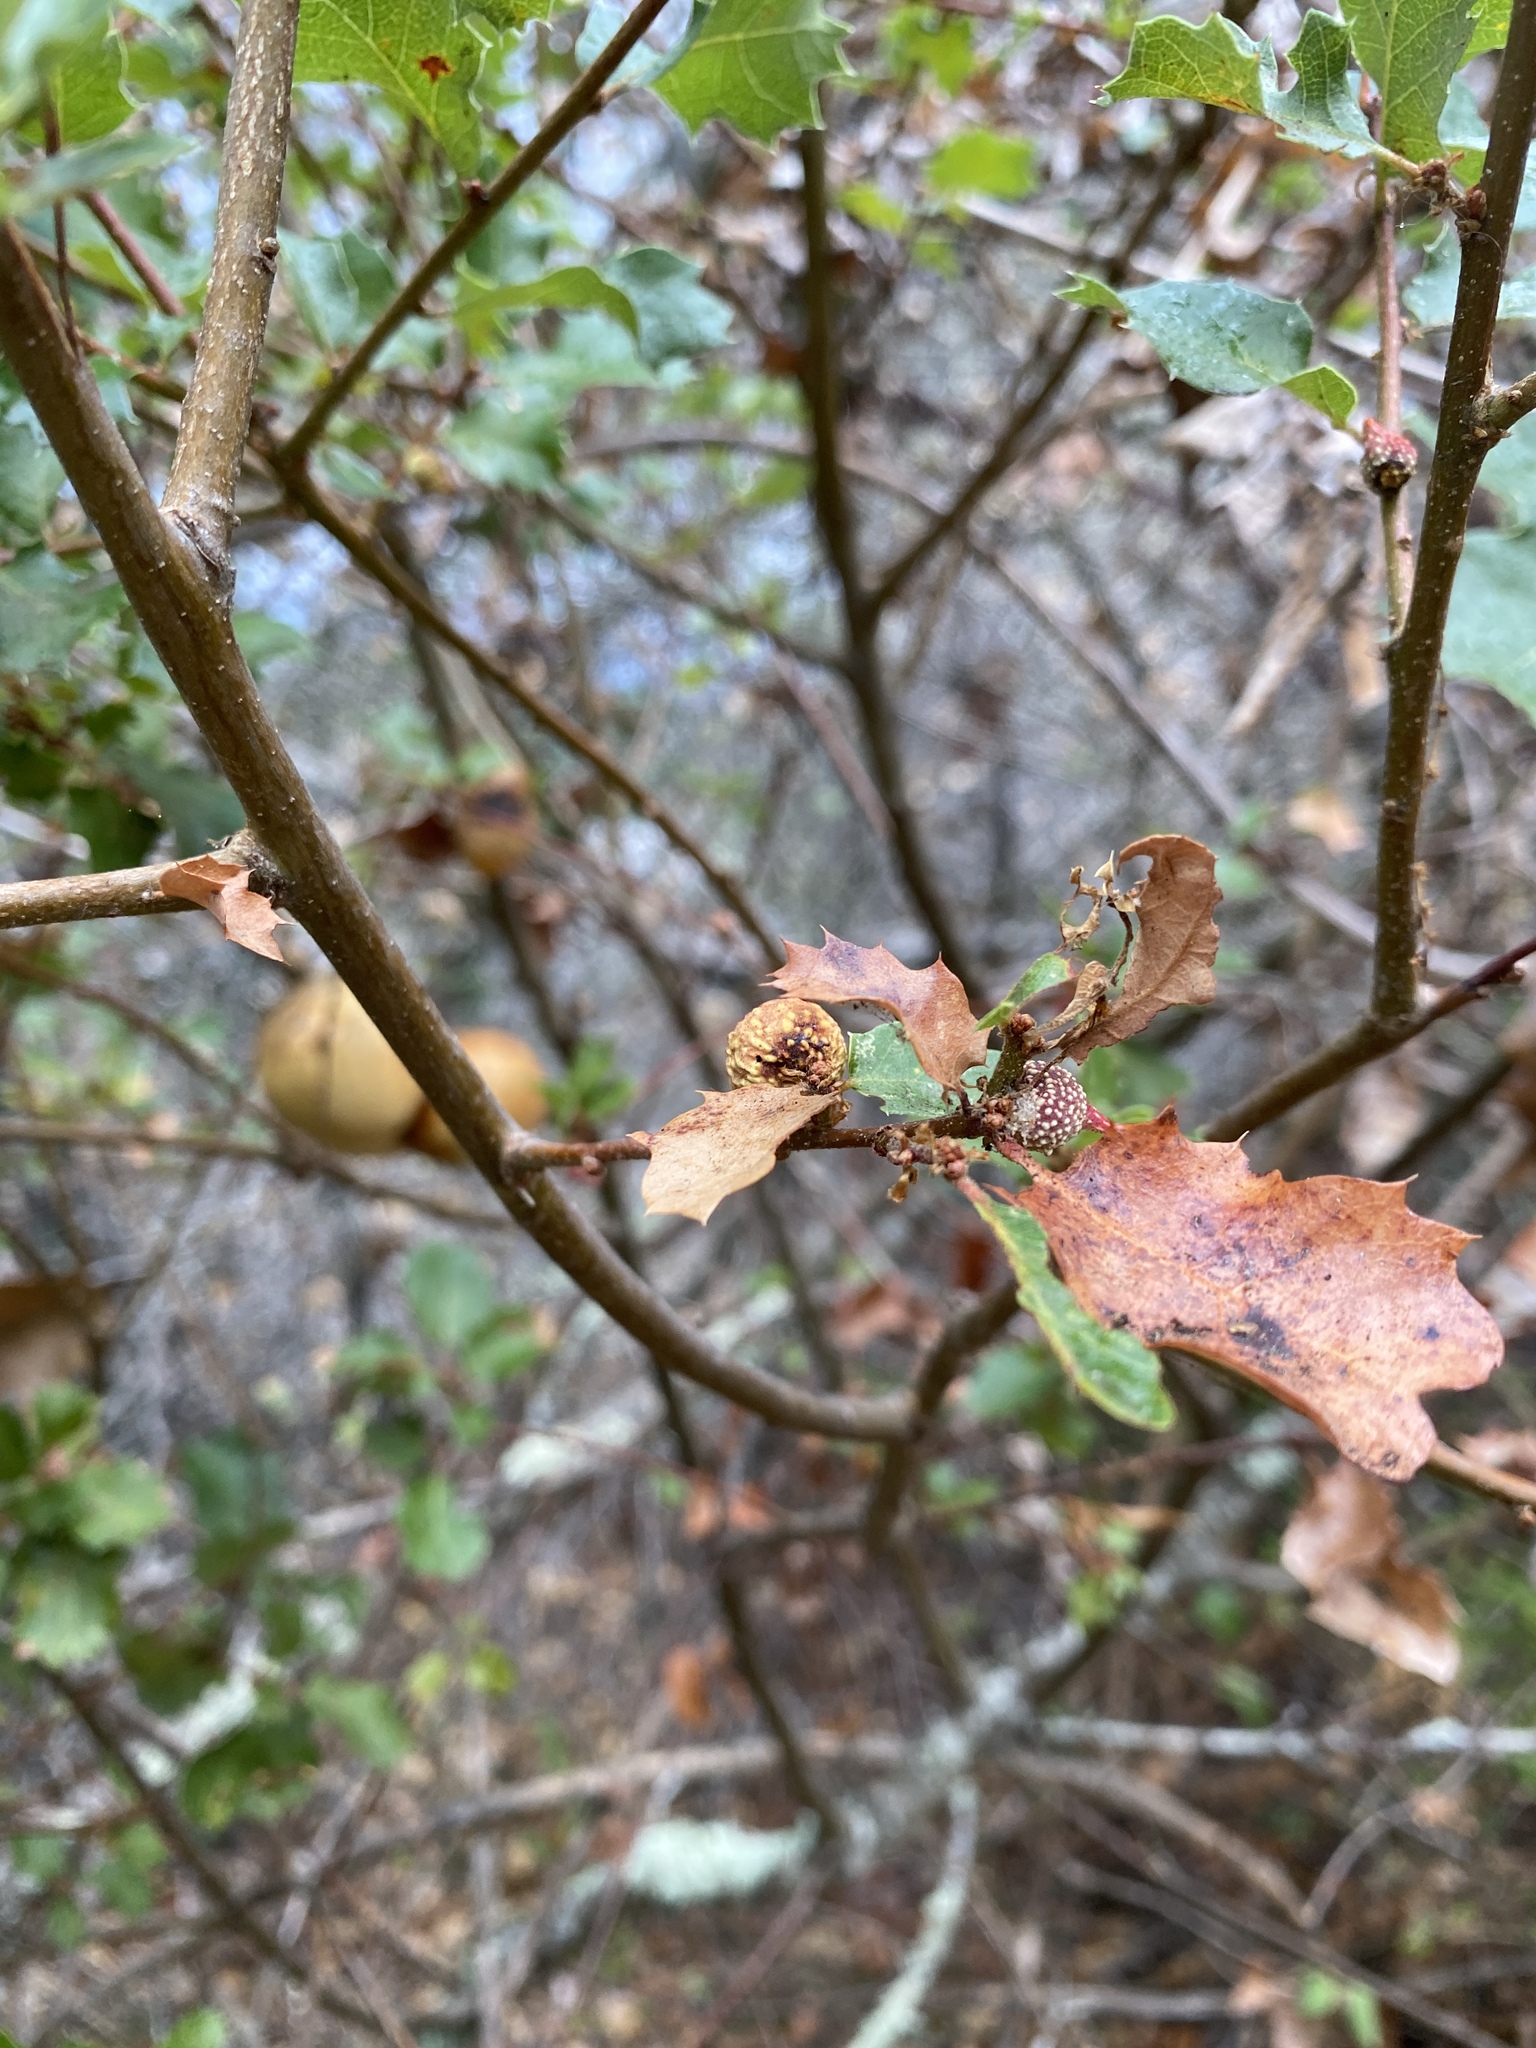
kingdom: Animalia
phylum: Arthropoda
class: Insecta
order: Hymenoptera
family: Cynipidae
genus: Burnettweldia
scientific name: Burnettweldia
